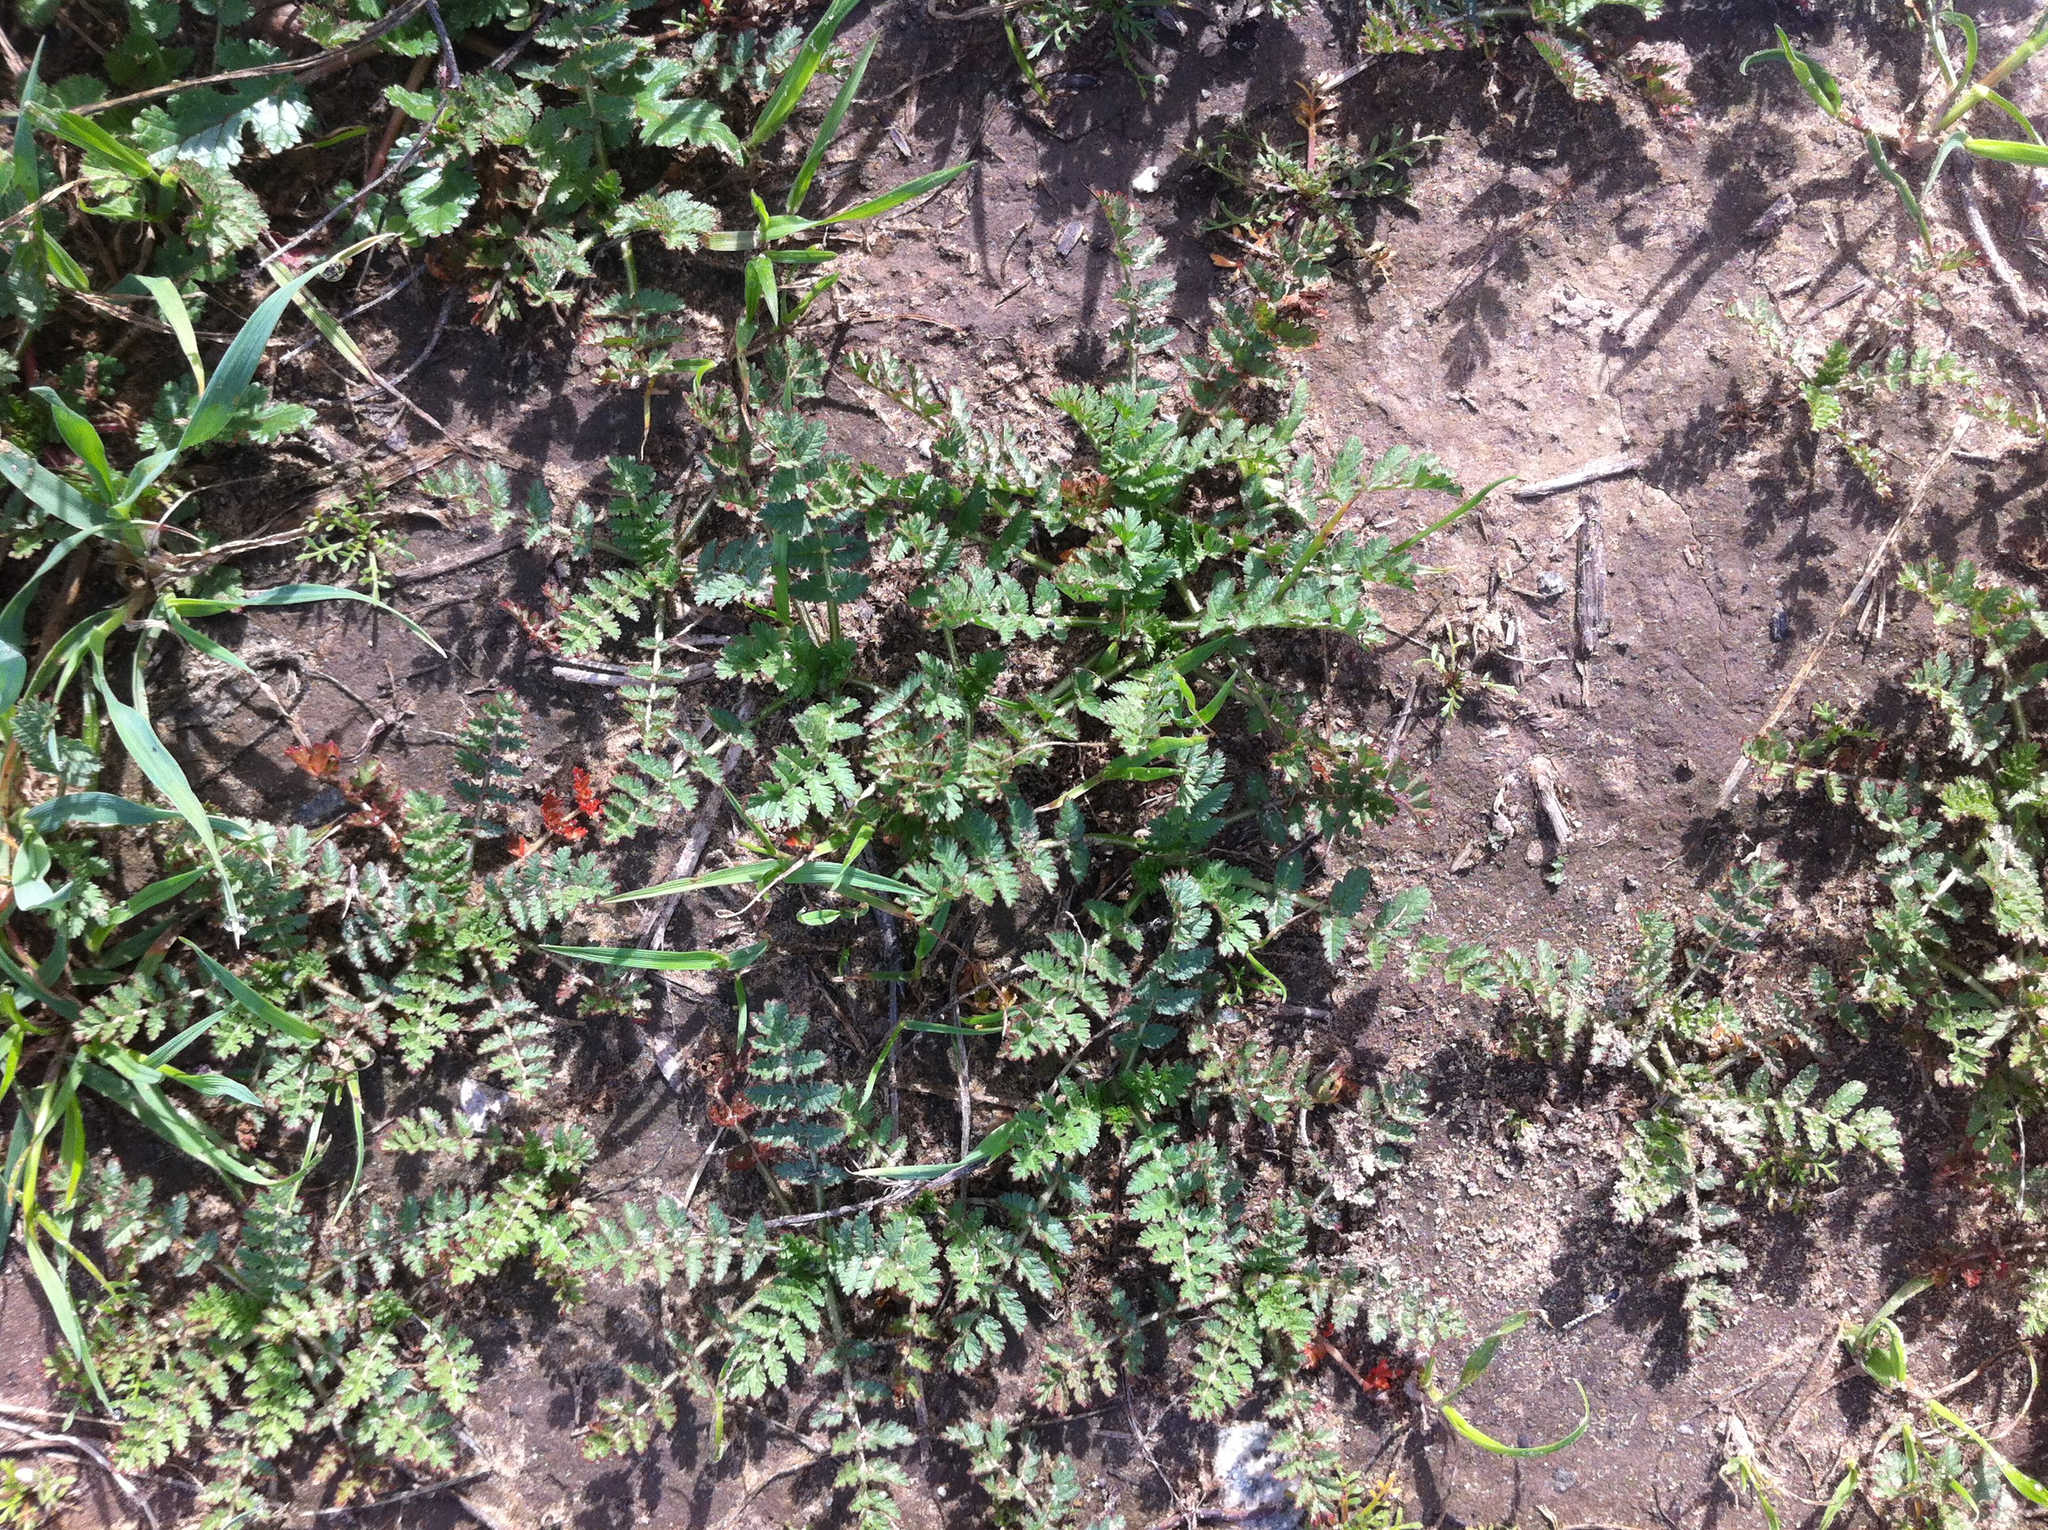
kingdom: Plantae
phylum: Tracheophyta
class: Magnoliopsida
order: Geraniales
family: Geraniaceae
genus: Erodium
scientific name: Erodium cicutarium
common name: Common stork's-bill
